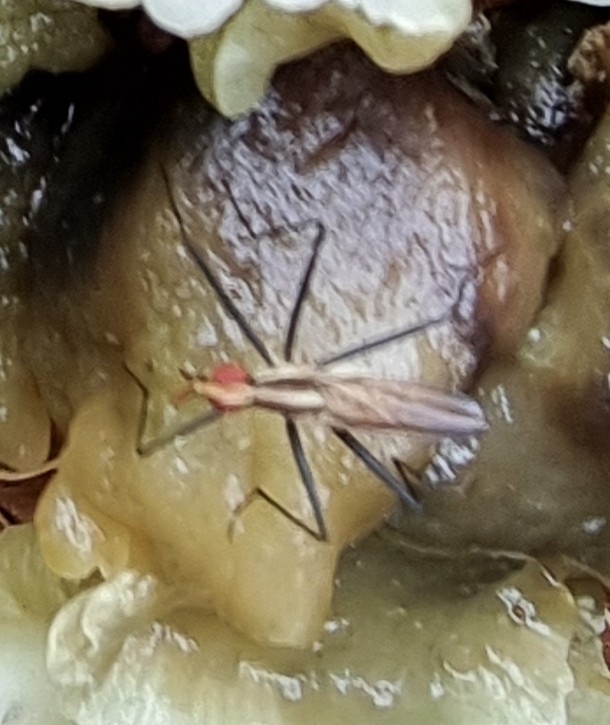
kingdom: Animalia
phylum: Arthropoda
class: Insecta
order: Diptera
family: Neriidae
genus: Telostylinus
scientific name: Telostylinus lineolatus
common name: Banana stalk fly
